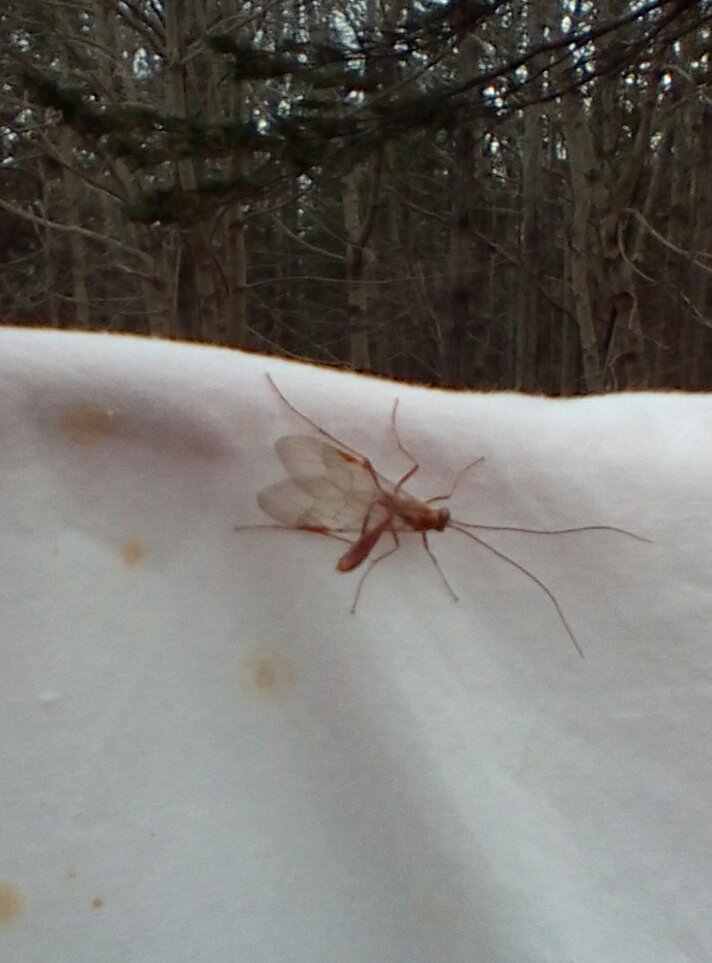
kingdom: Animalia
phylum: Arthropoda
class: Insecta
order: Hymenoptera
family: Ichneumonidae
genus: Ophion
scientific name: Ophion
